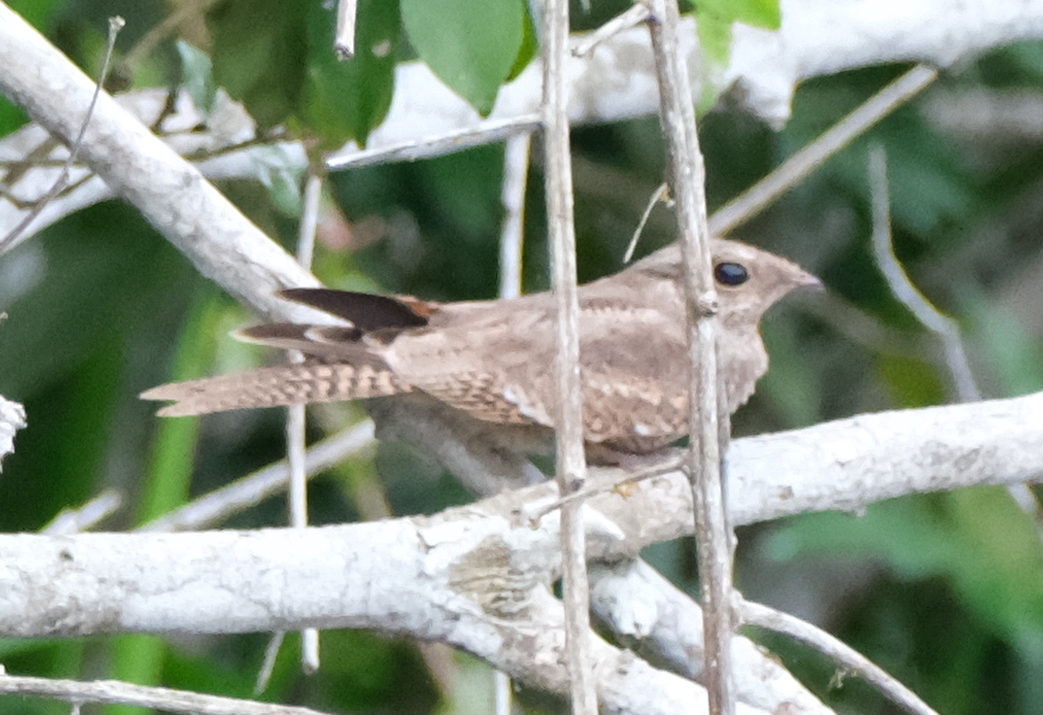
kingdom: Animalia
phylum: Chordata
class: Aves
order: Caprimulgiformes
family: Caprimulgidae
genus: Hydropsalis
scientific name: Hydropsalis climacocerca
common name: Ladder-tailed nightjar
